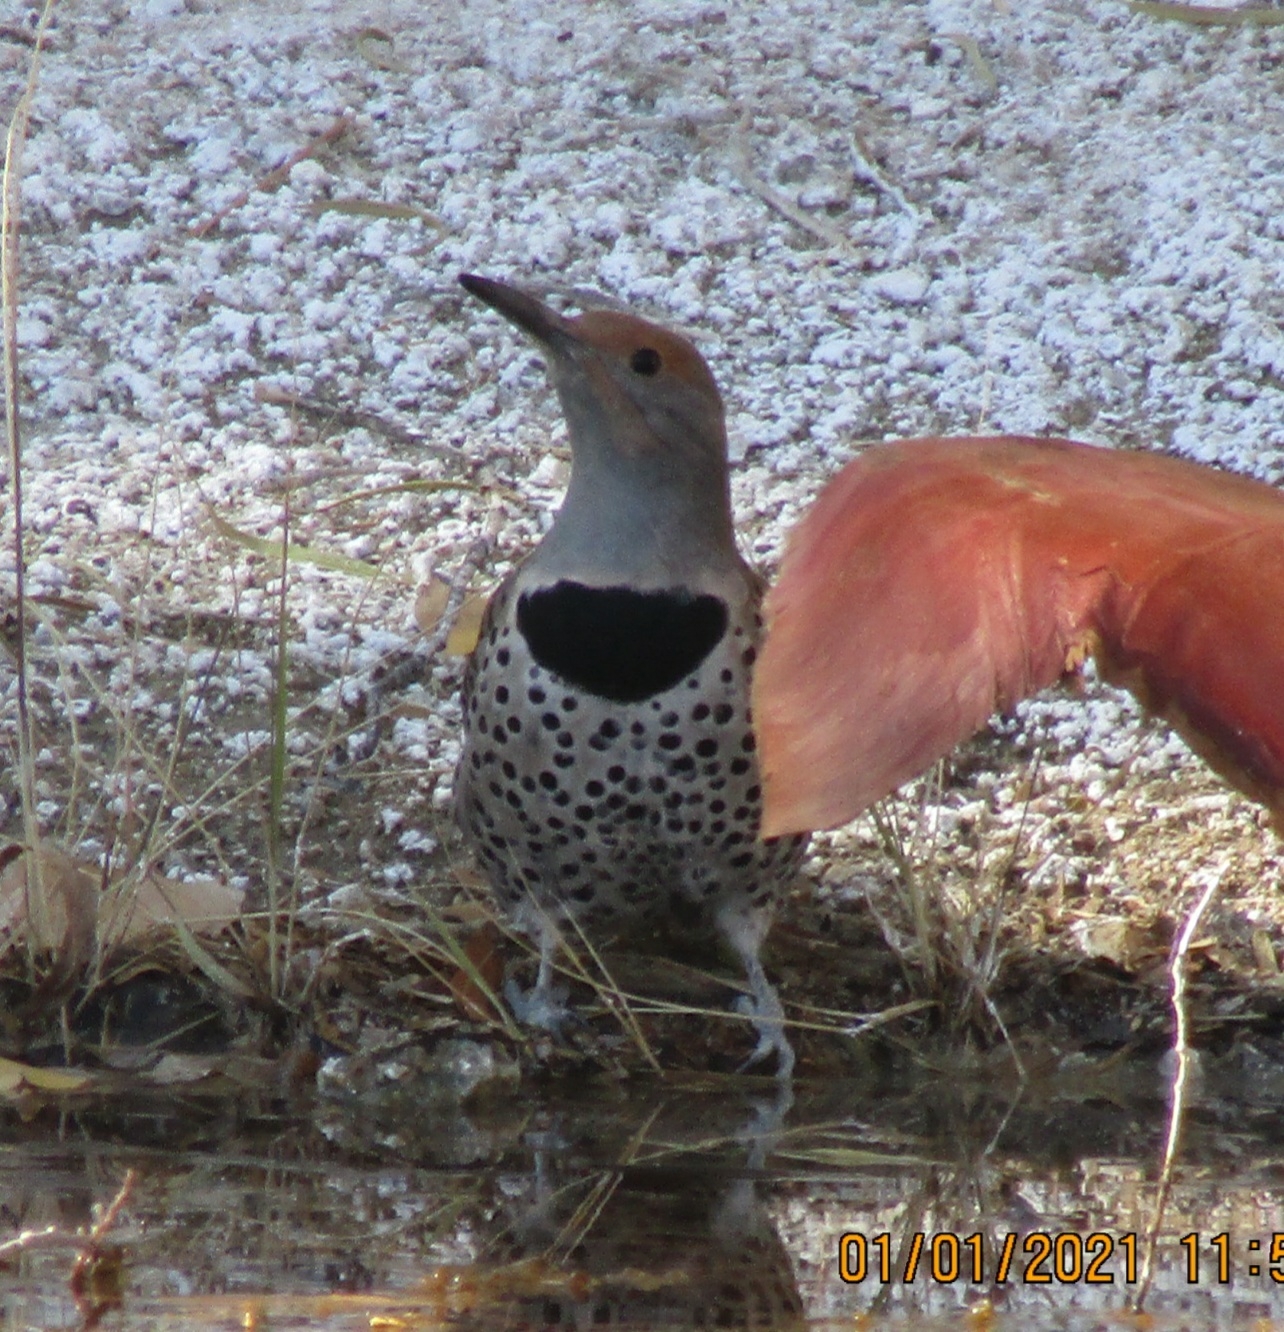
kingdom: Animalia
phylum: Chordata
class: Aves
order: Piciformes
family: Picidae
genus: Colaptes
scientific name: Colaptes auratus
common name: Northern flicker
